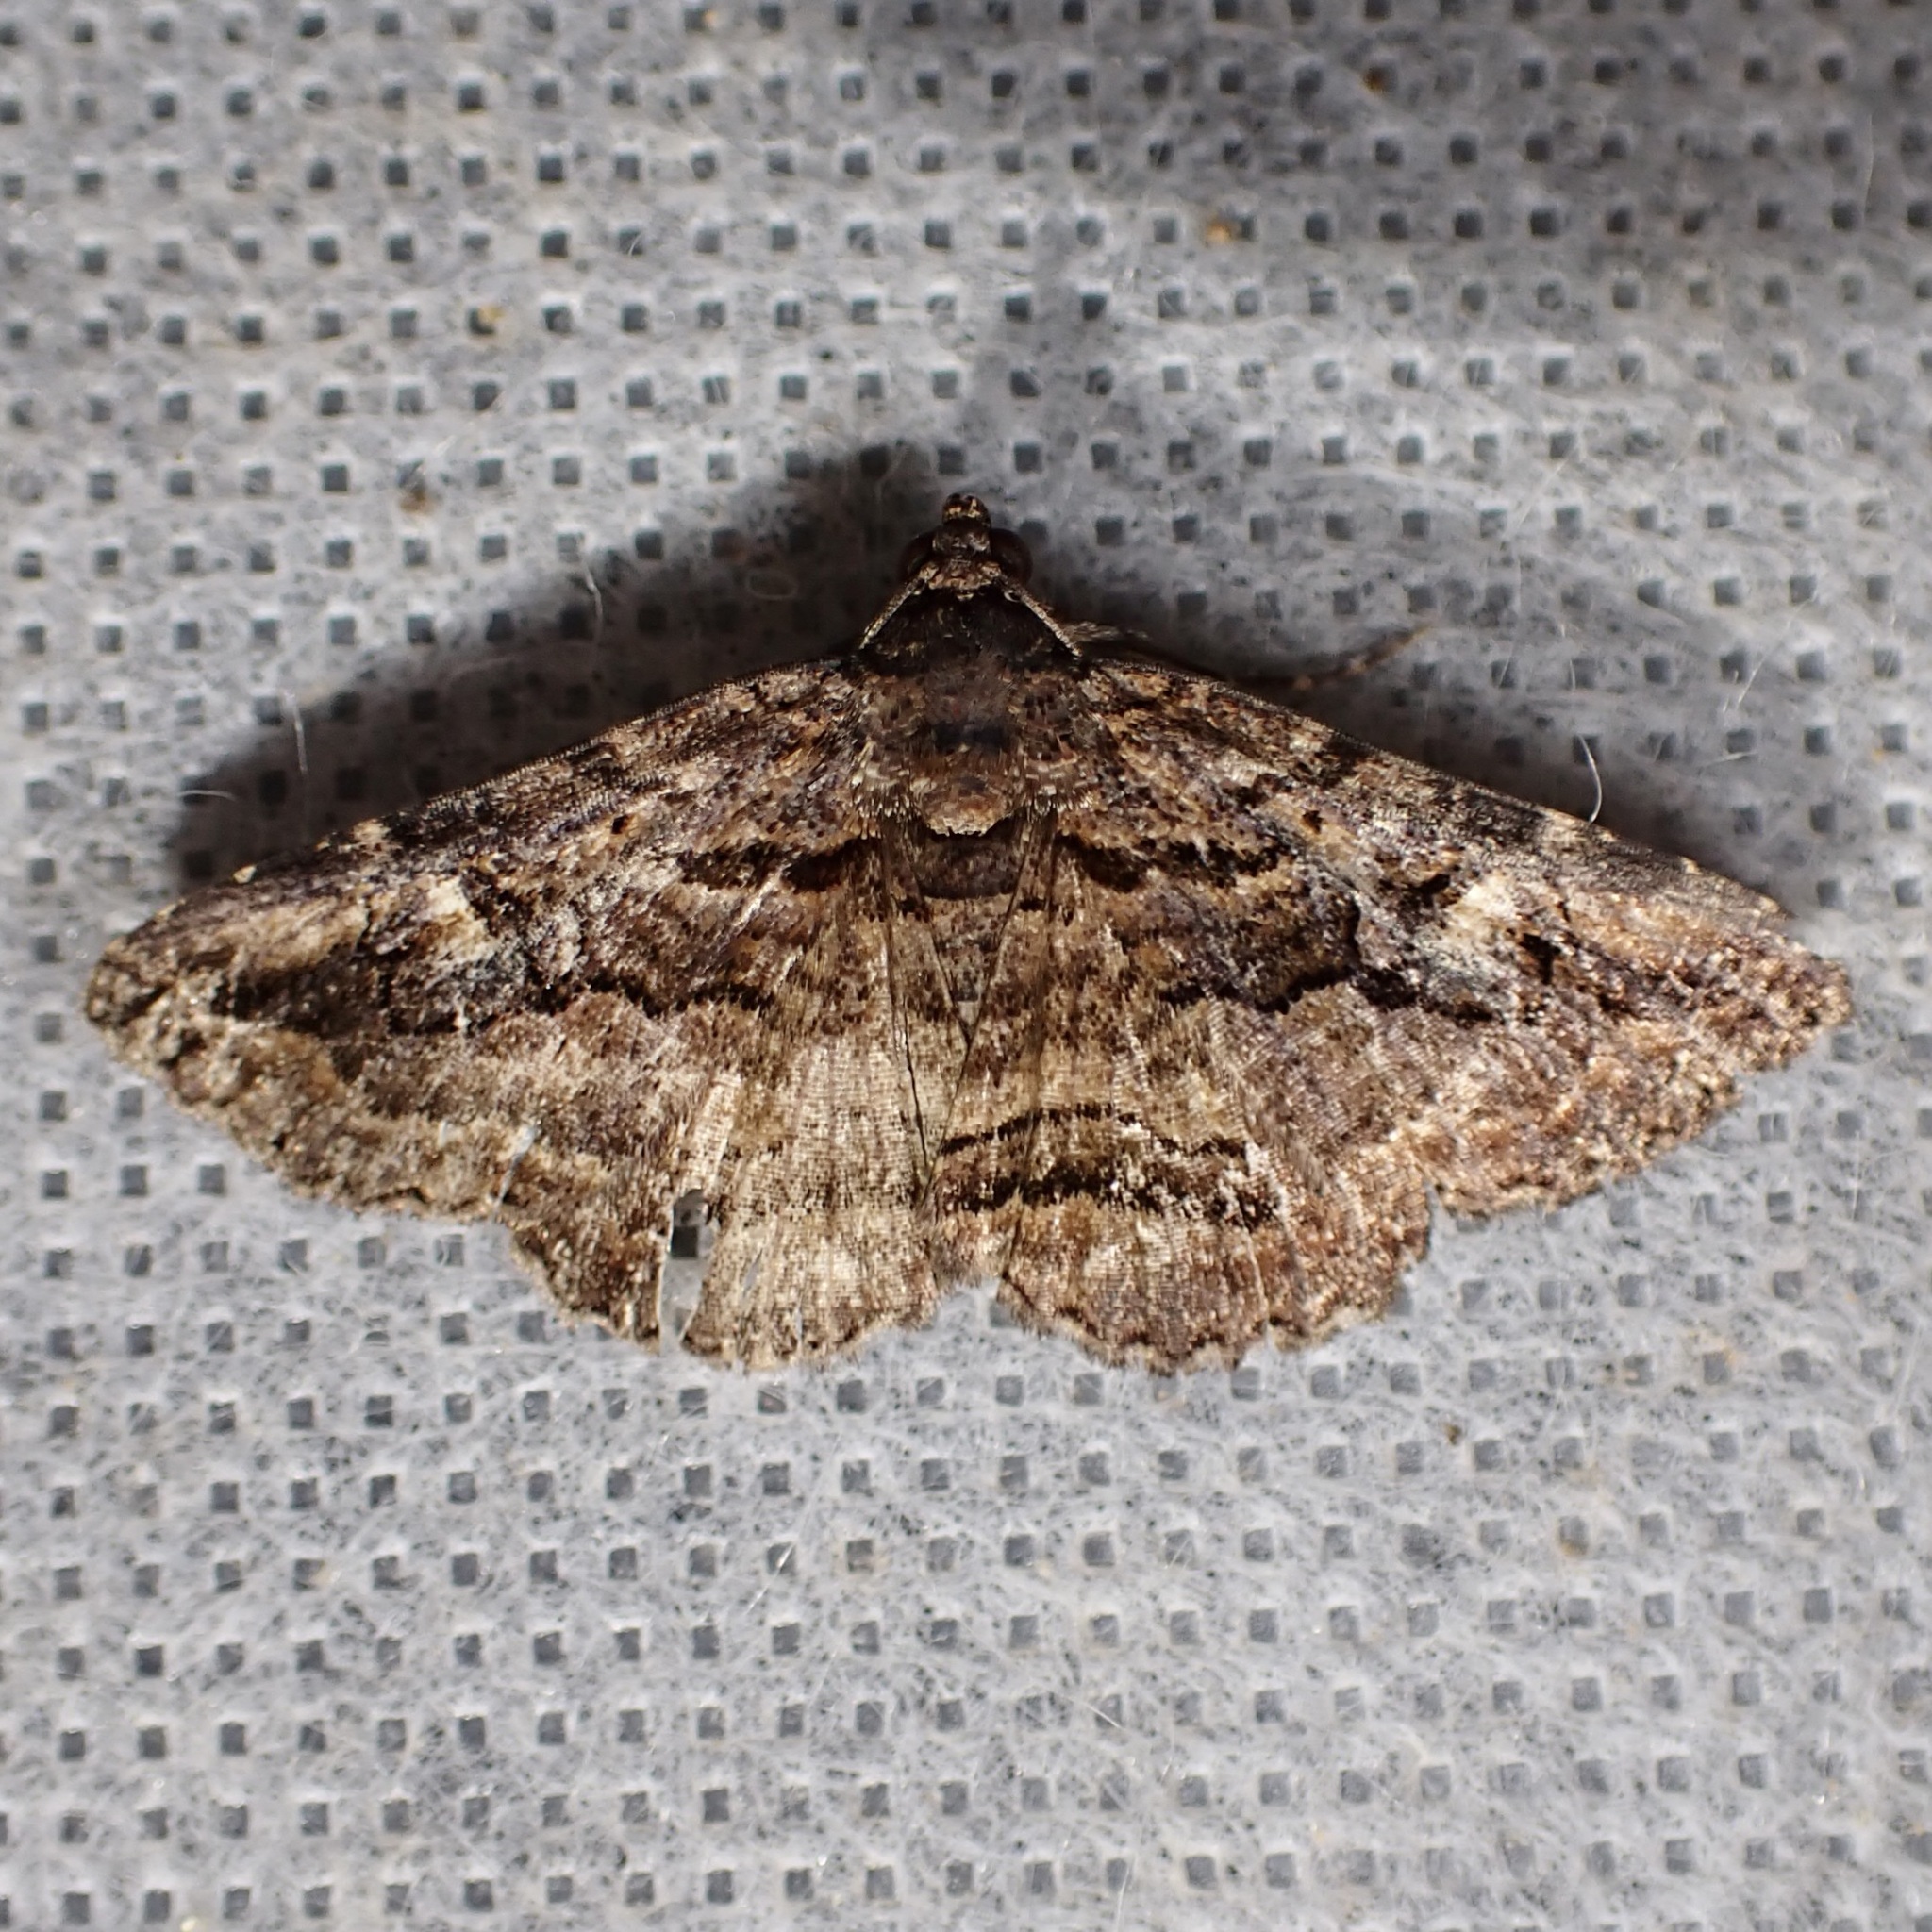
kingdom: Animalia
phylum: Arthropoda
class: Insecta
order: Lepidoptera
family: Erebidae
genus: Zaleops
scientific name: Zaleops umbrina
